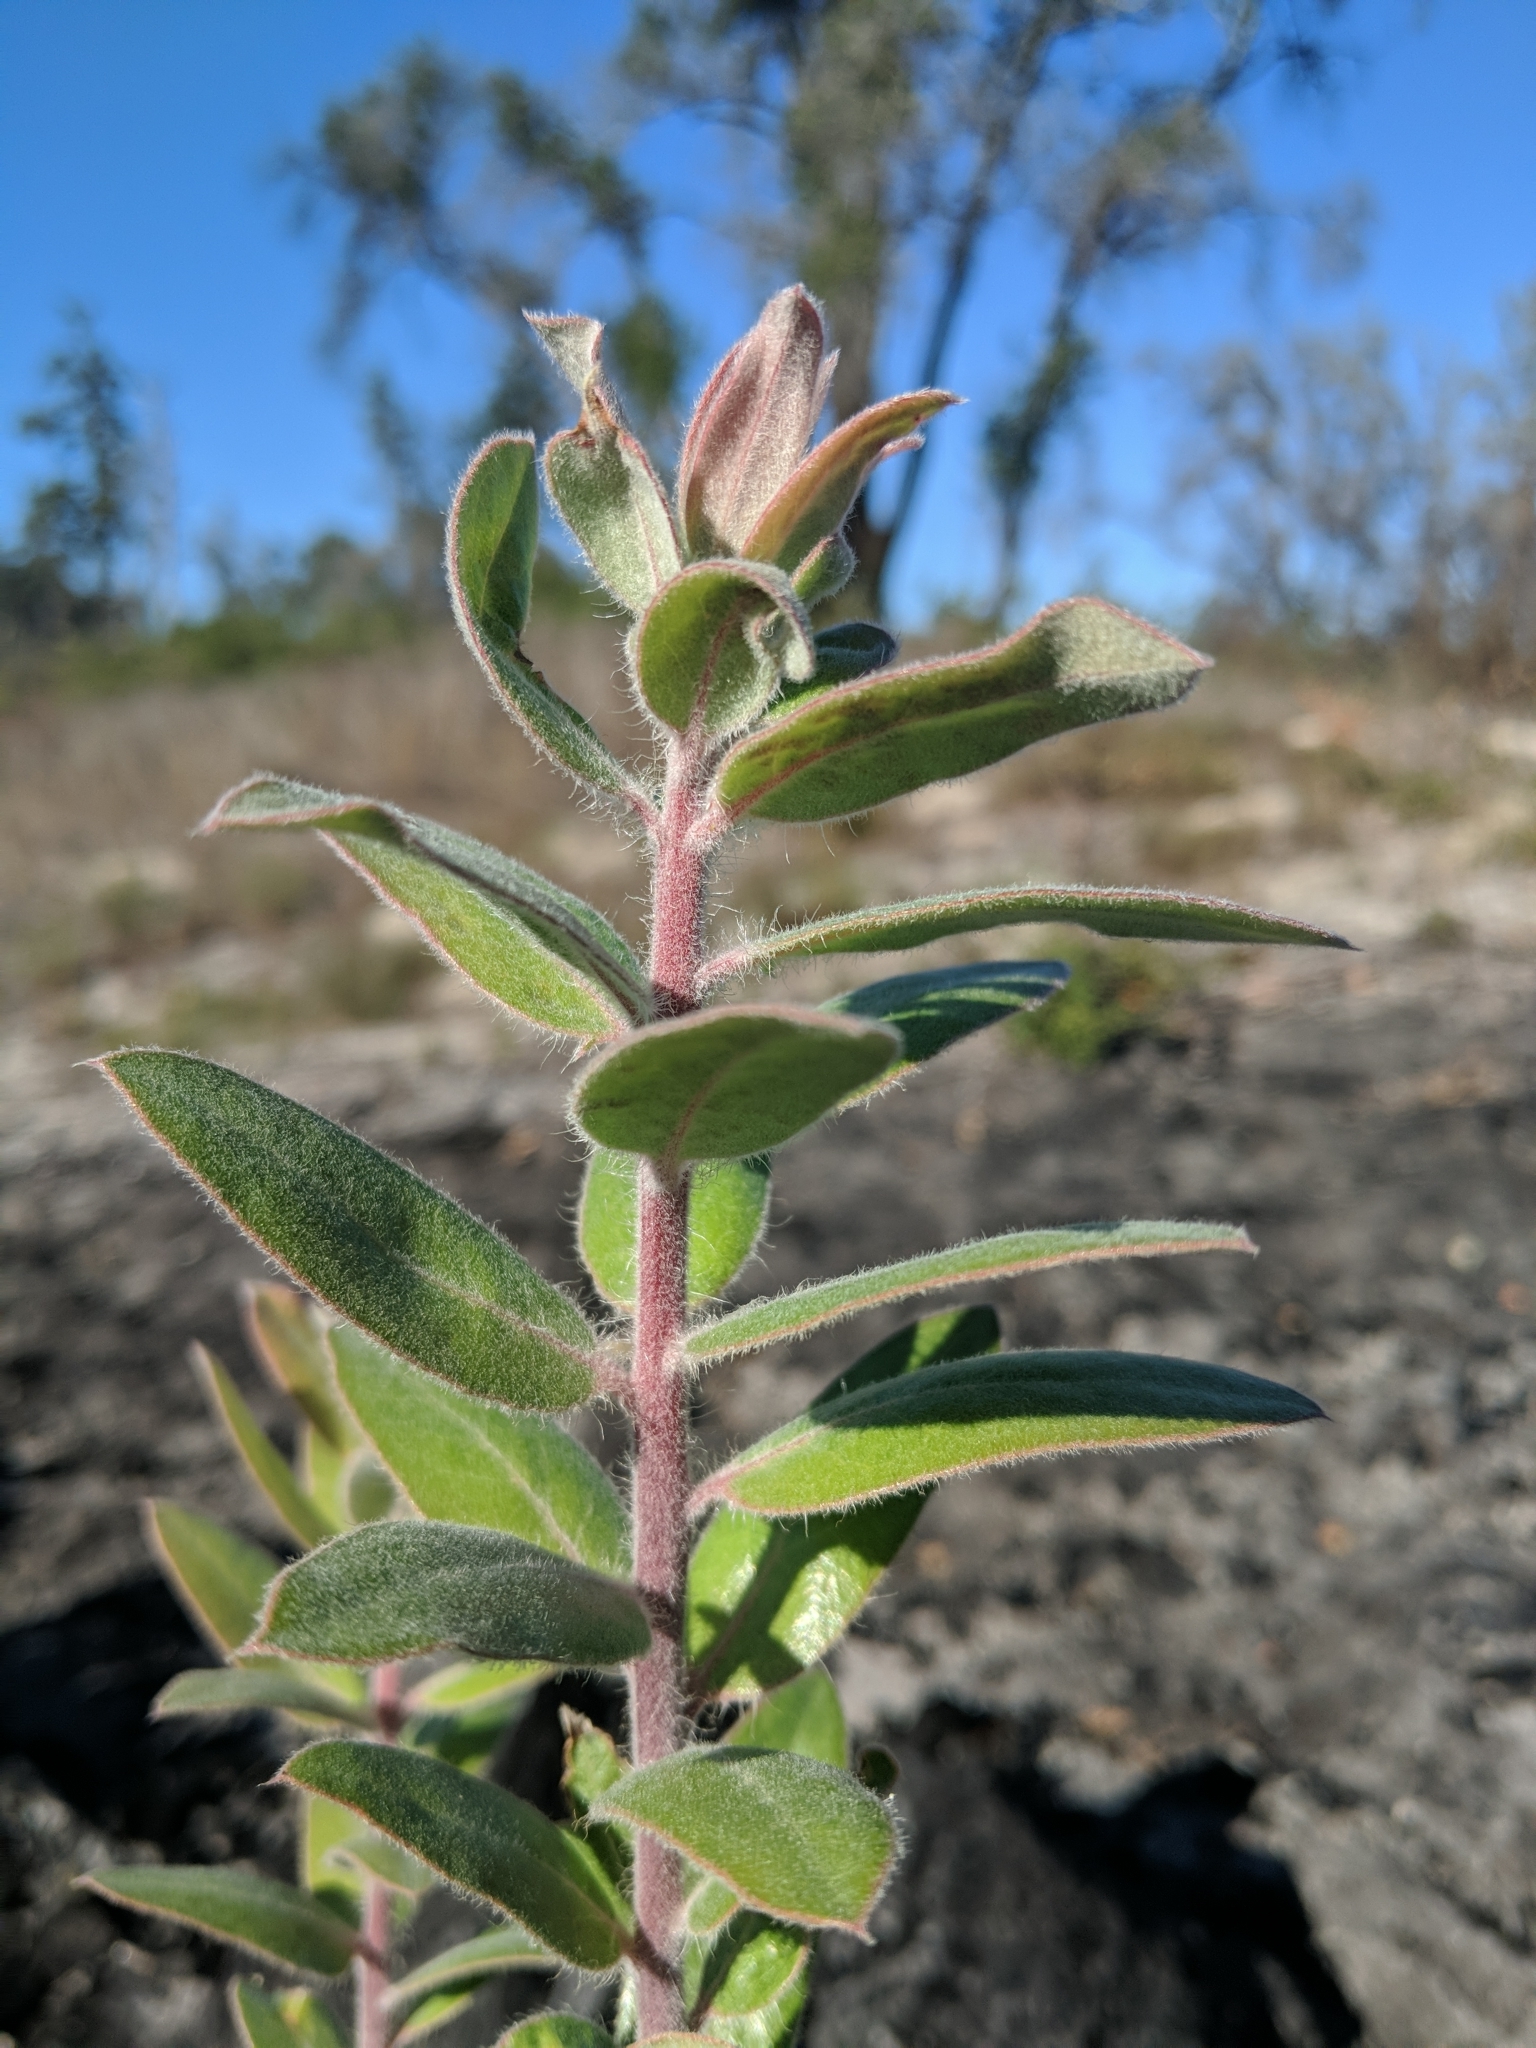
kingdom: Plantae
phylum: Tracheophyta
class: Magnoliopsida
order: Ericales
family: Ericaceae
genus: Arctostaphylos
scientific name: Arctostaphylos crustacea
